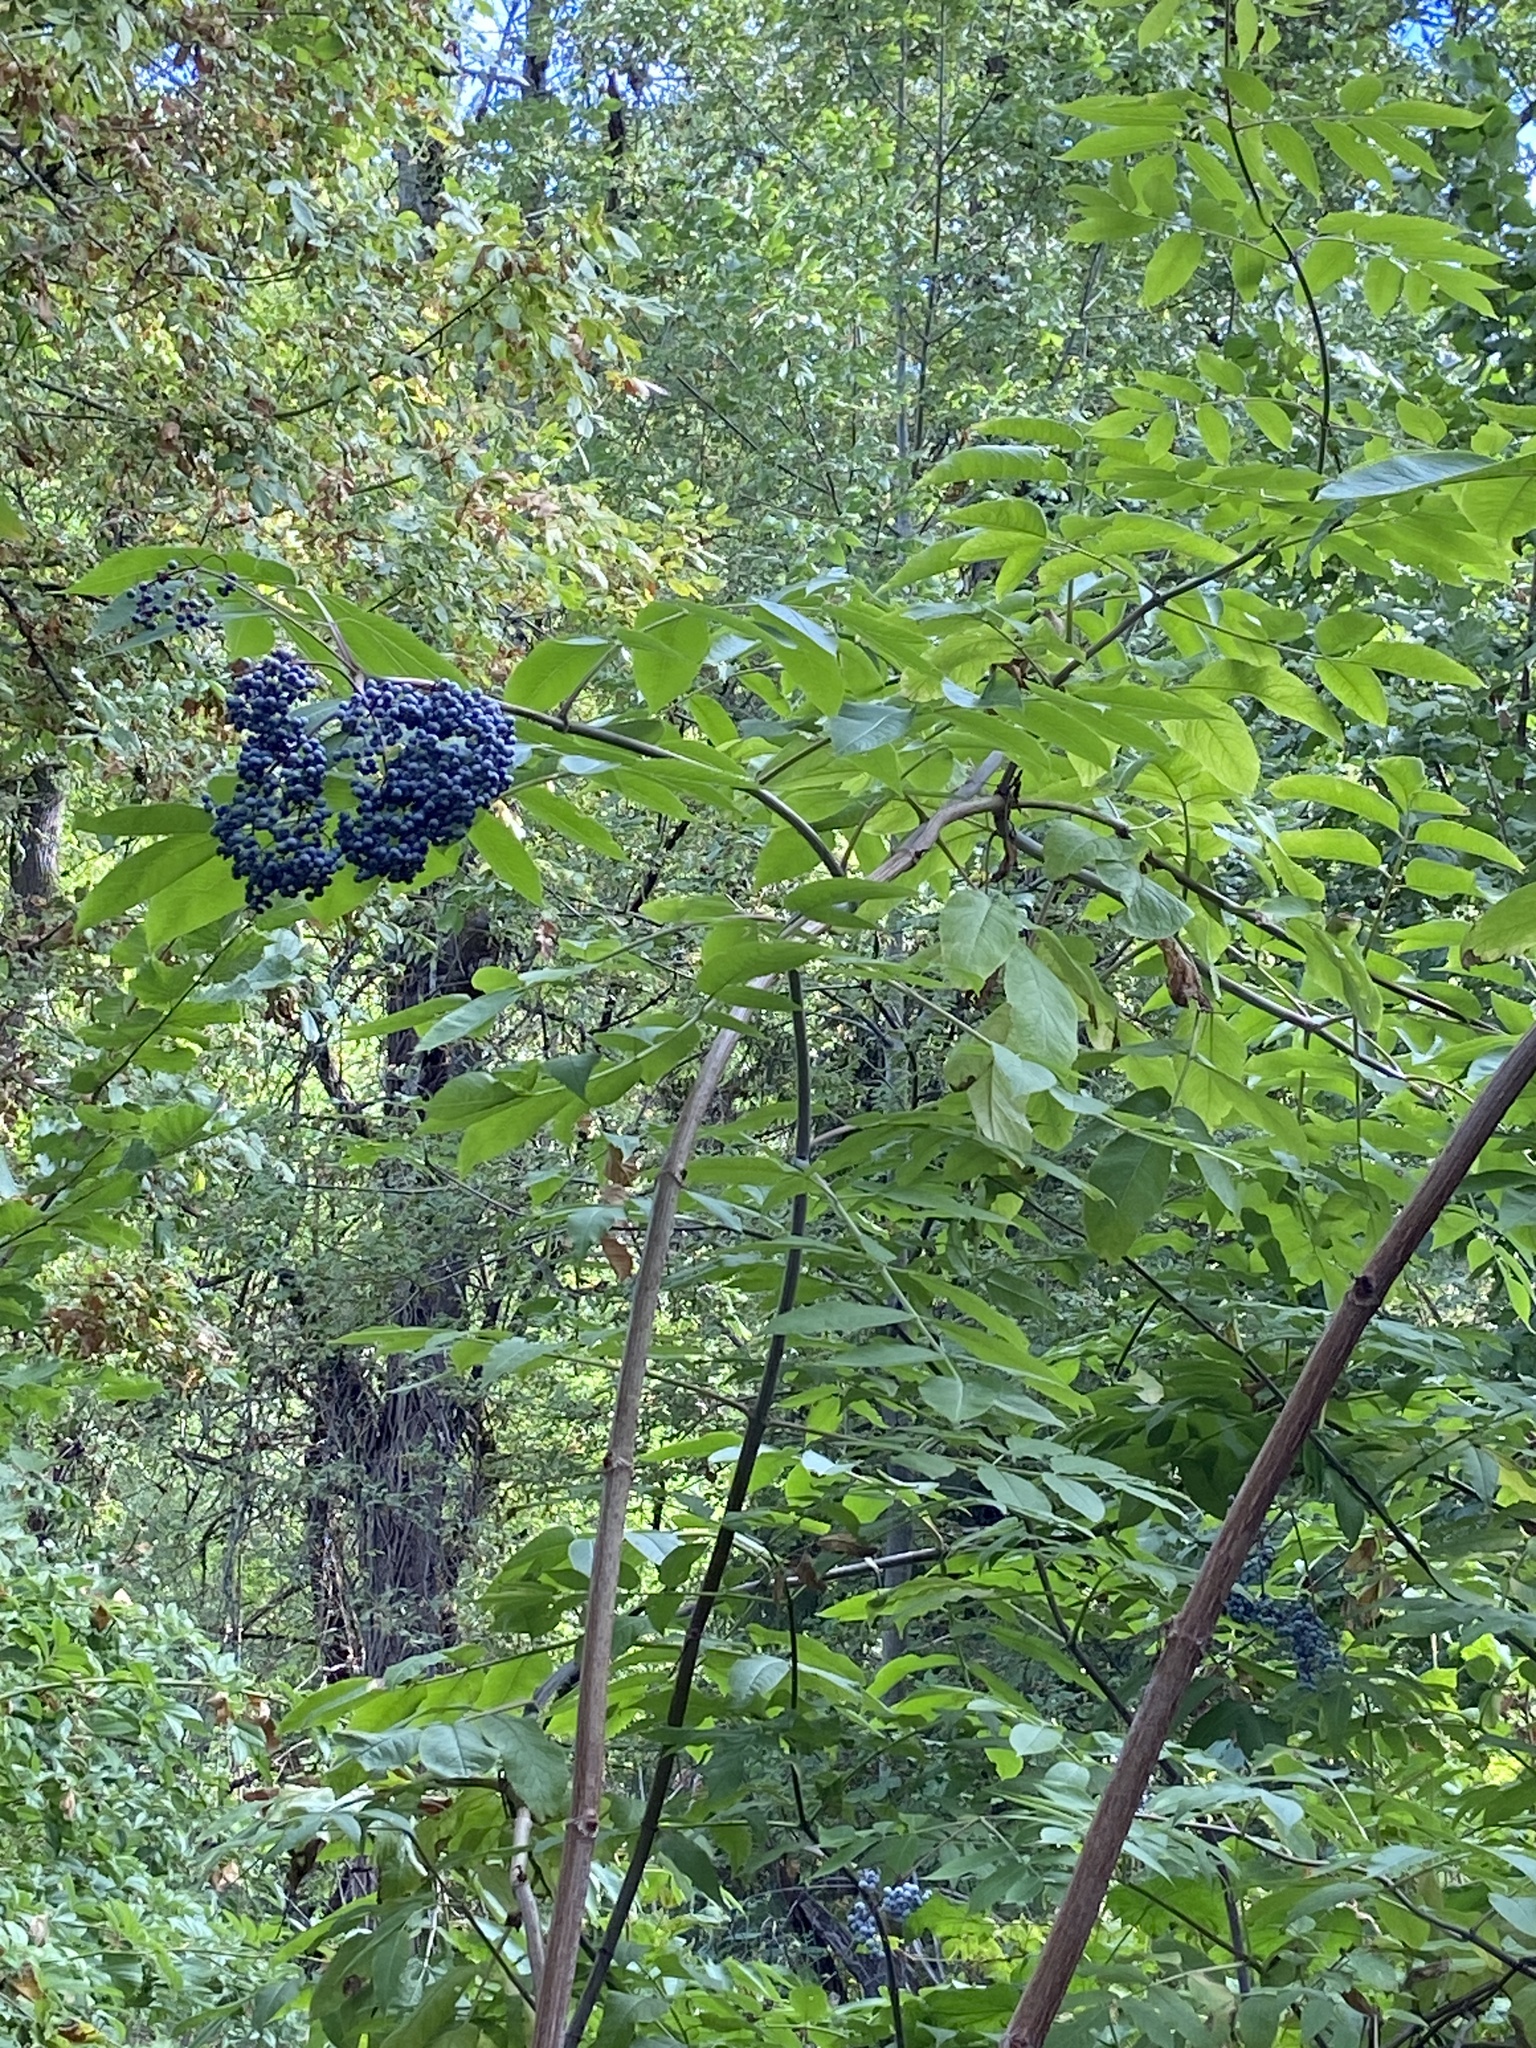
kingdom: Plantae
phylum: Tracheophyta
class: Magnoliopsida
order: Dipsacales
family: Viburnaceae
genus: Sambucus
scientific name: Sambucus cerulea
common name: Blue elder
